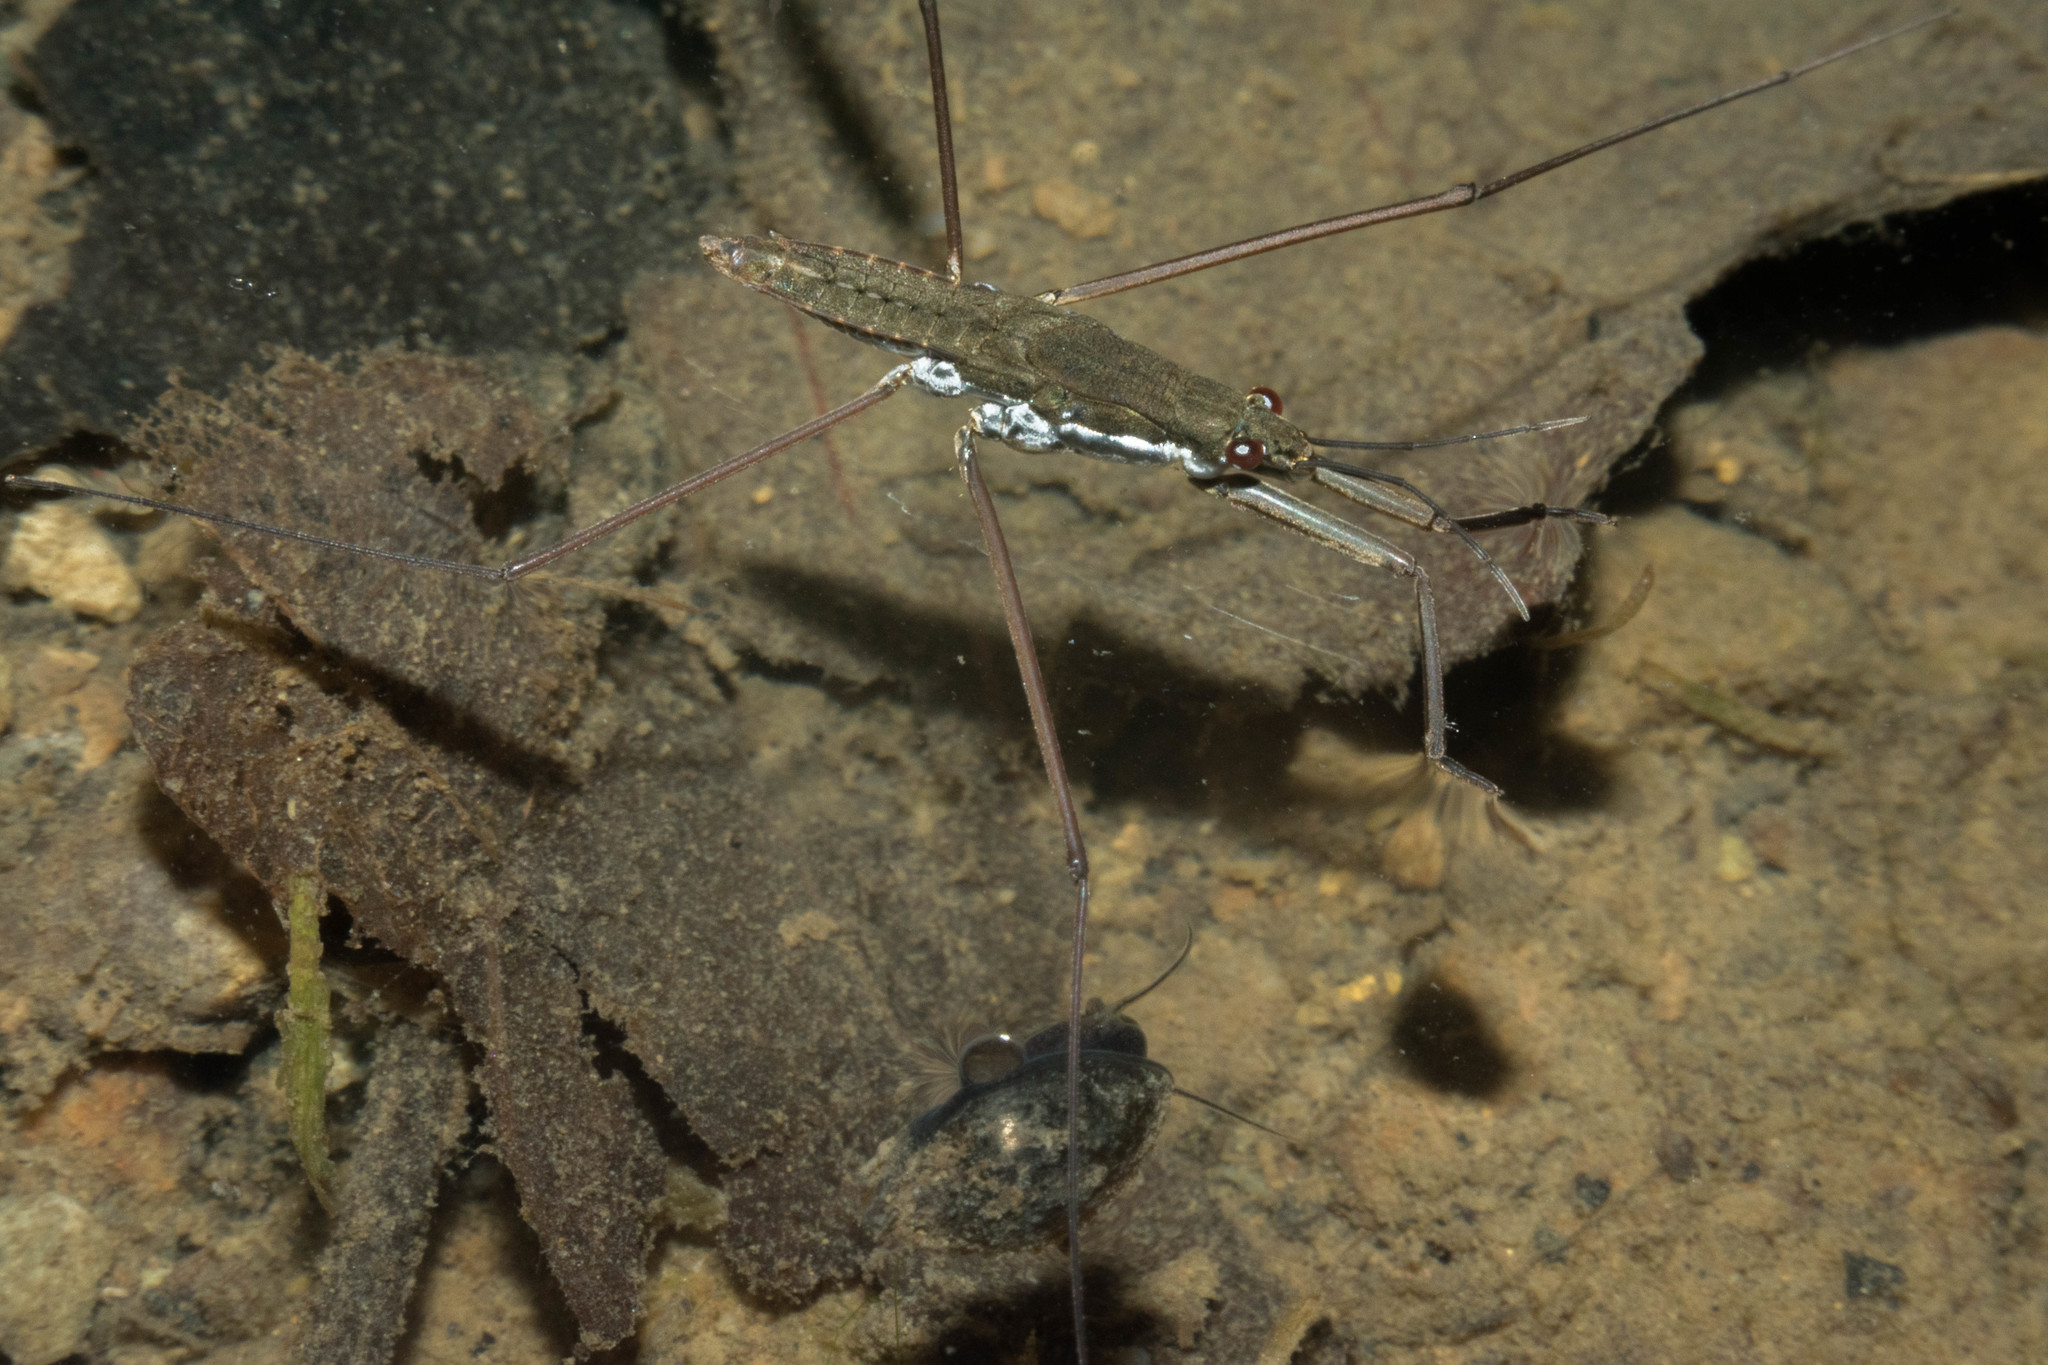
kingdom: Animalia
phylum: Arthropoda
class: Insecta
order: Hemiptera
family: Gerridae
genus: Aquarius
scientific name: Aquarius remigis
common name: Common water strider
